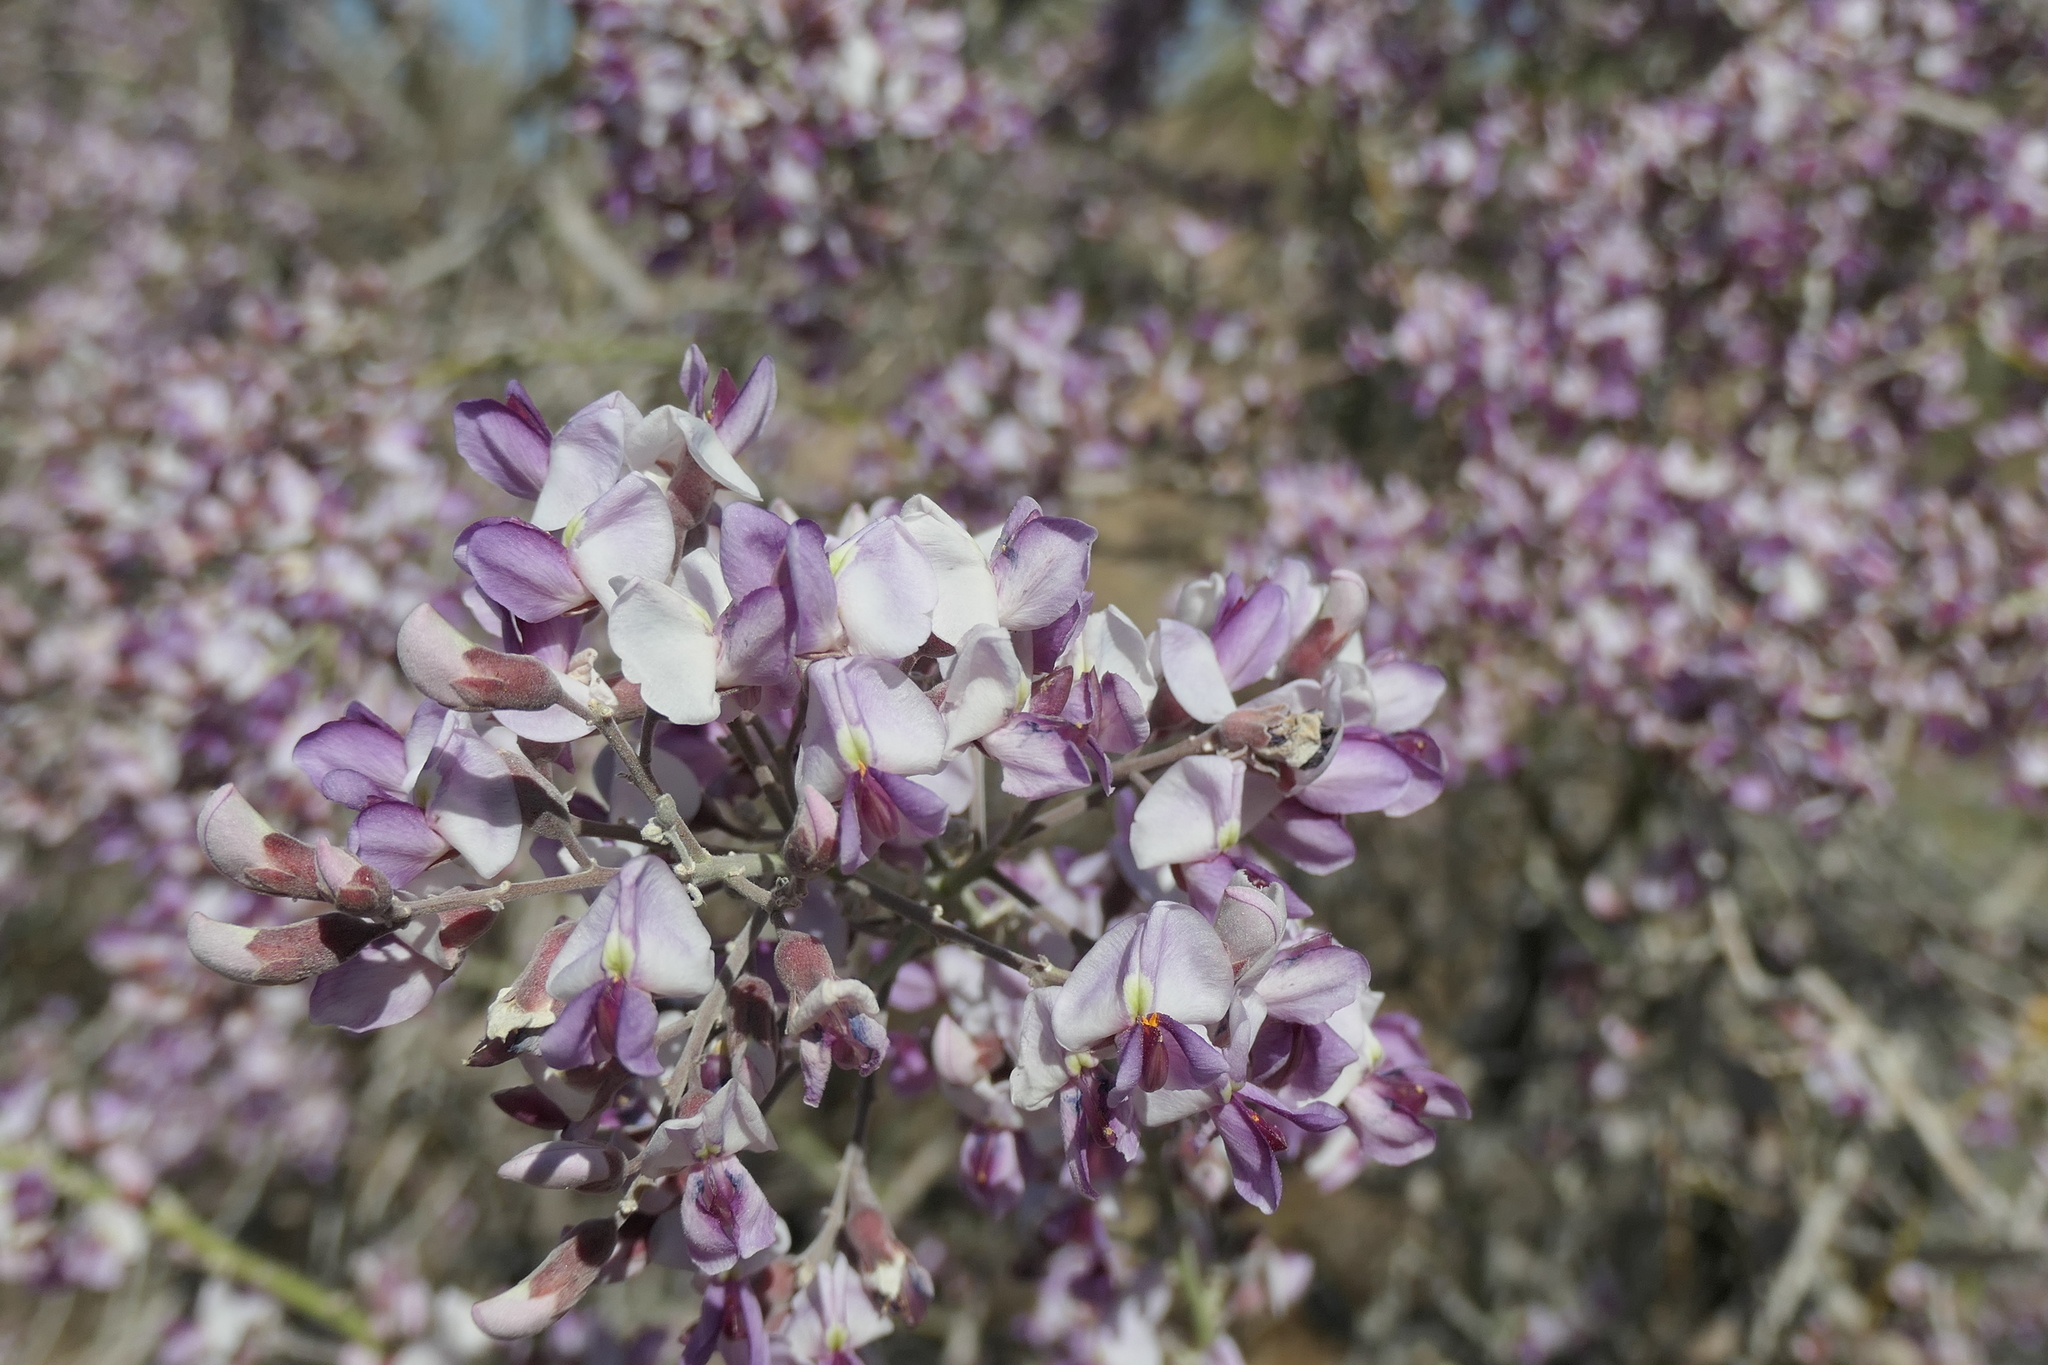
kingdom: Plantae
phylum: Tracheophyta
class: Magnoliopsida
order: Fabales
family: Fabaceae
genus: Olneya
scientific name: Olneya tesota
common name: Desert ironwood
